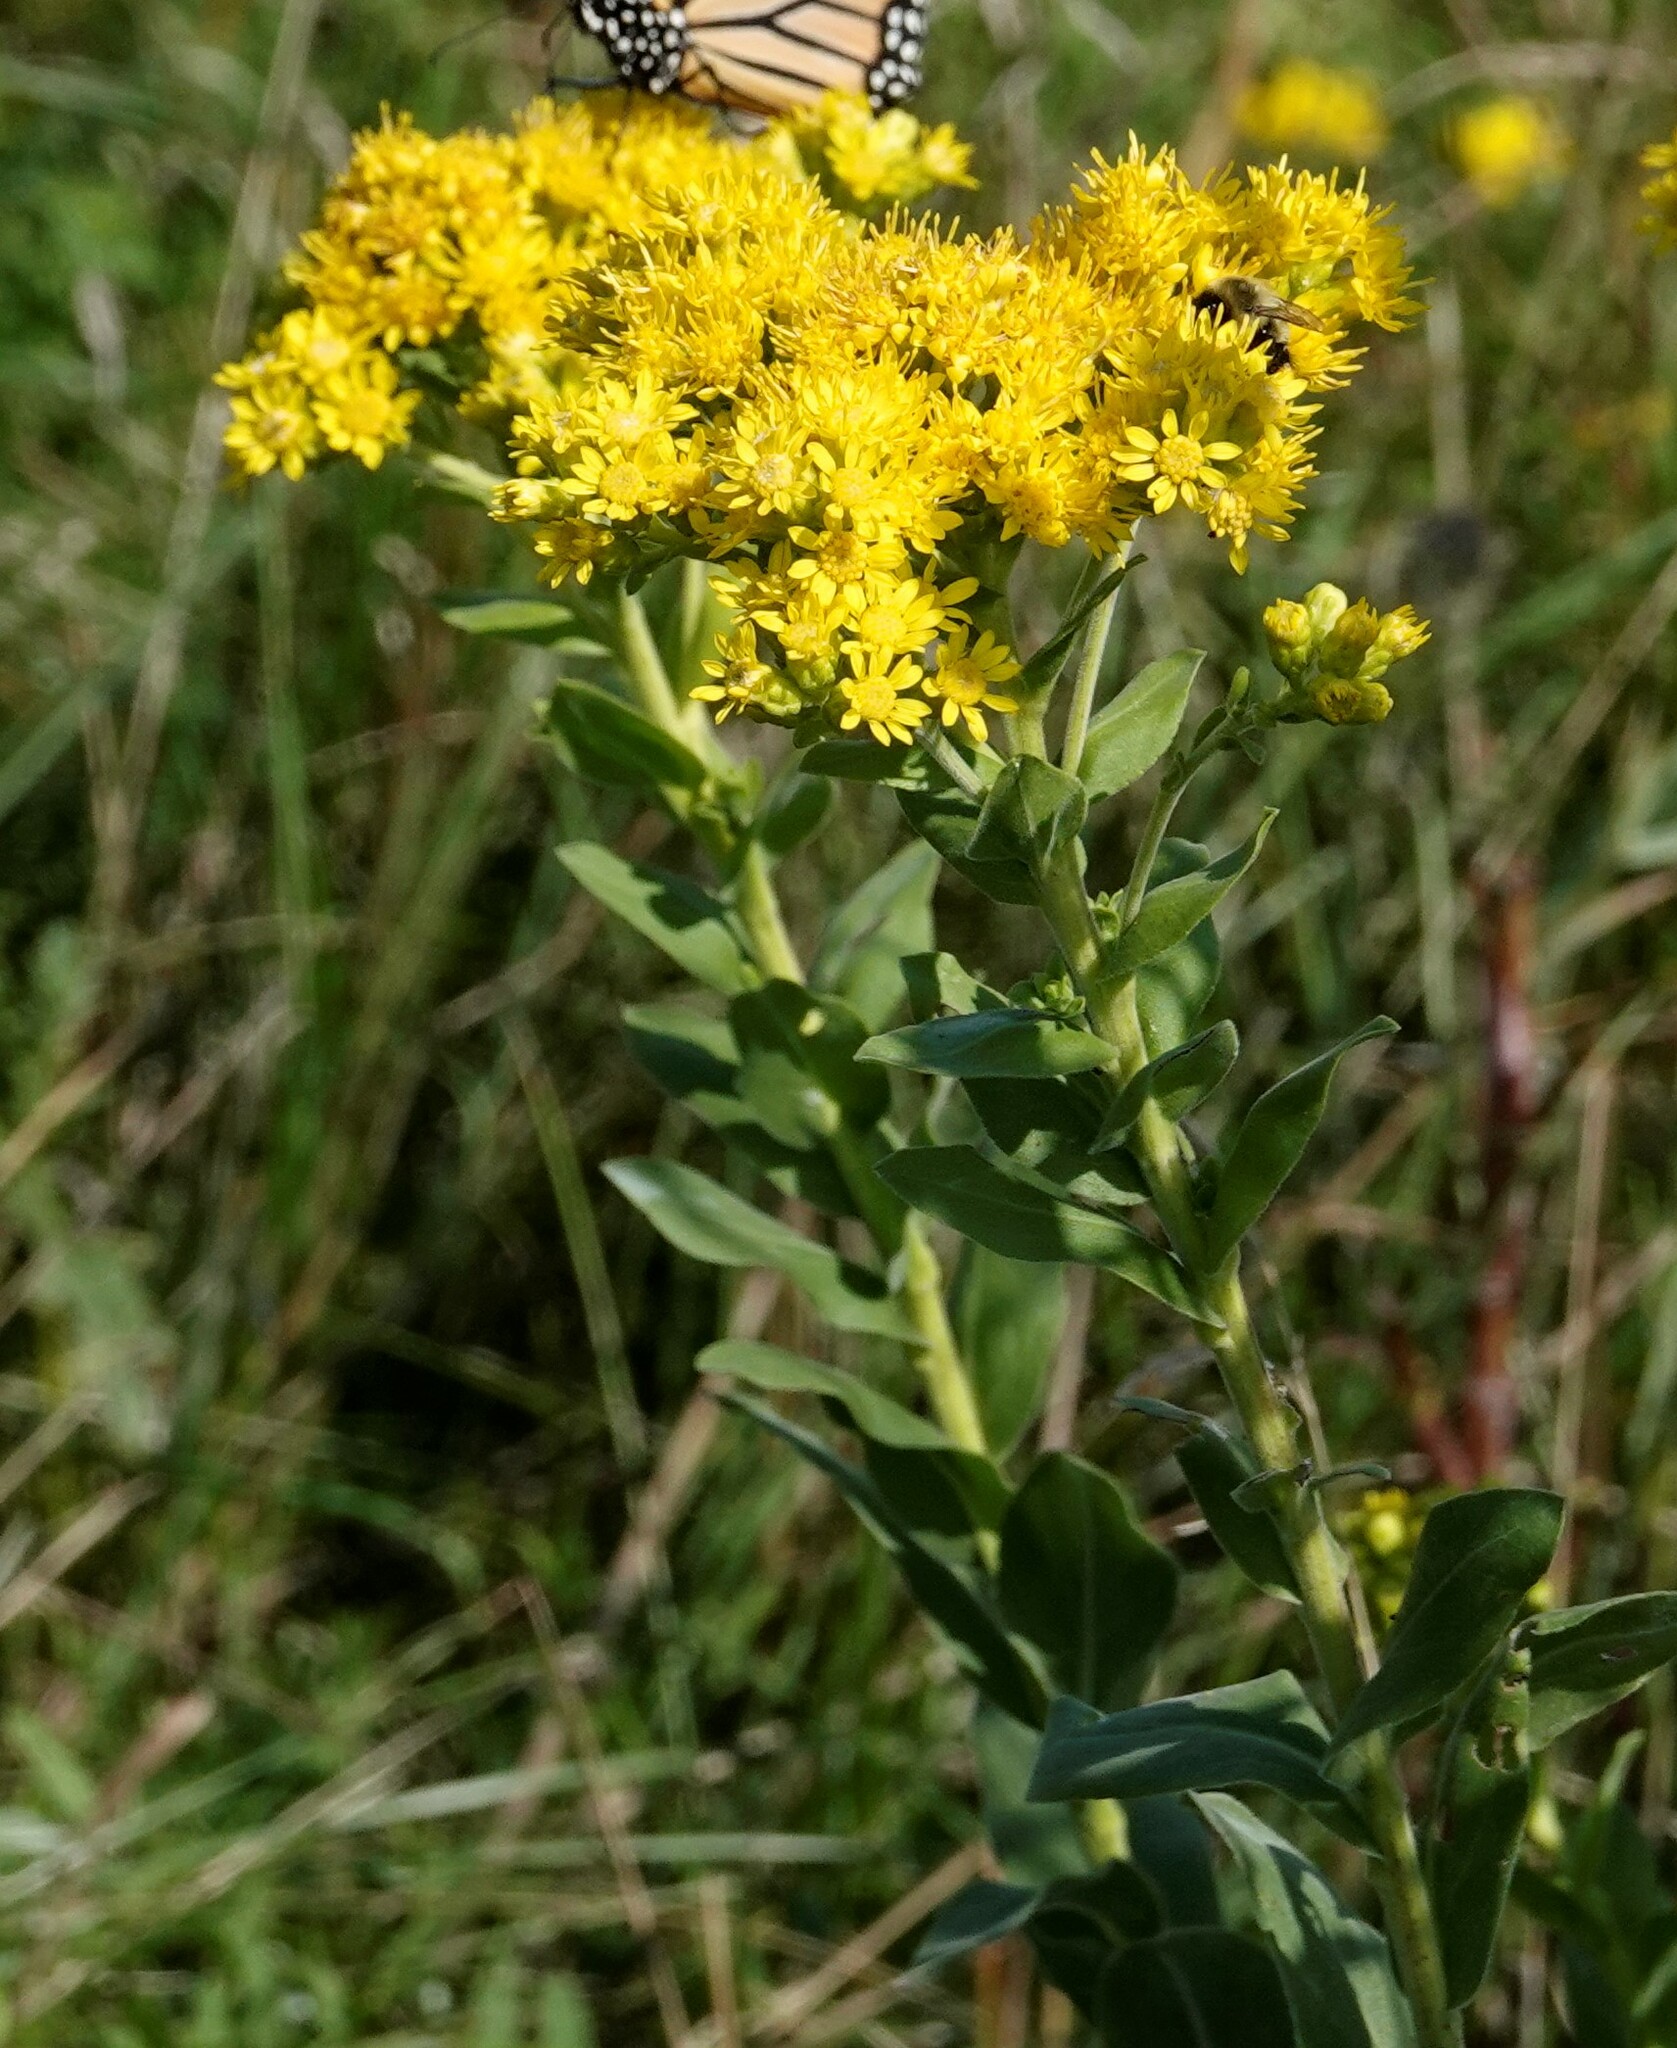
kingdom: Plantae
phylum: Tracheophyta
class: Magnoliopsida
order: Asterales
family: Asteraceae
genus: Solidago
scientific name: Solidago rigida
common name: Rigid goldenrod
